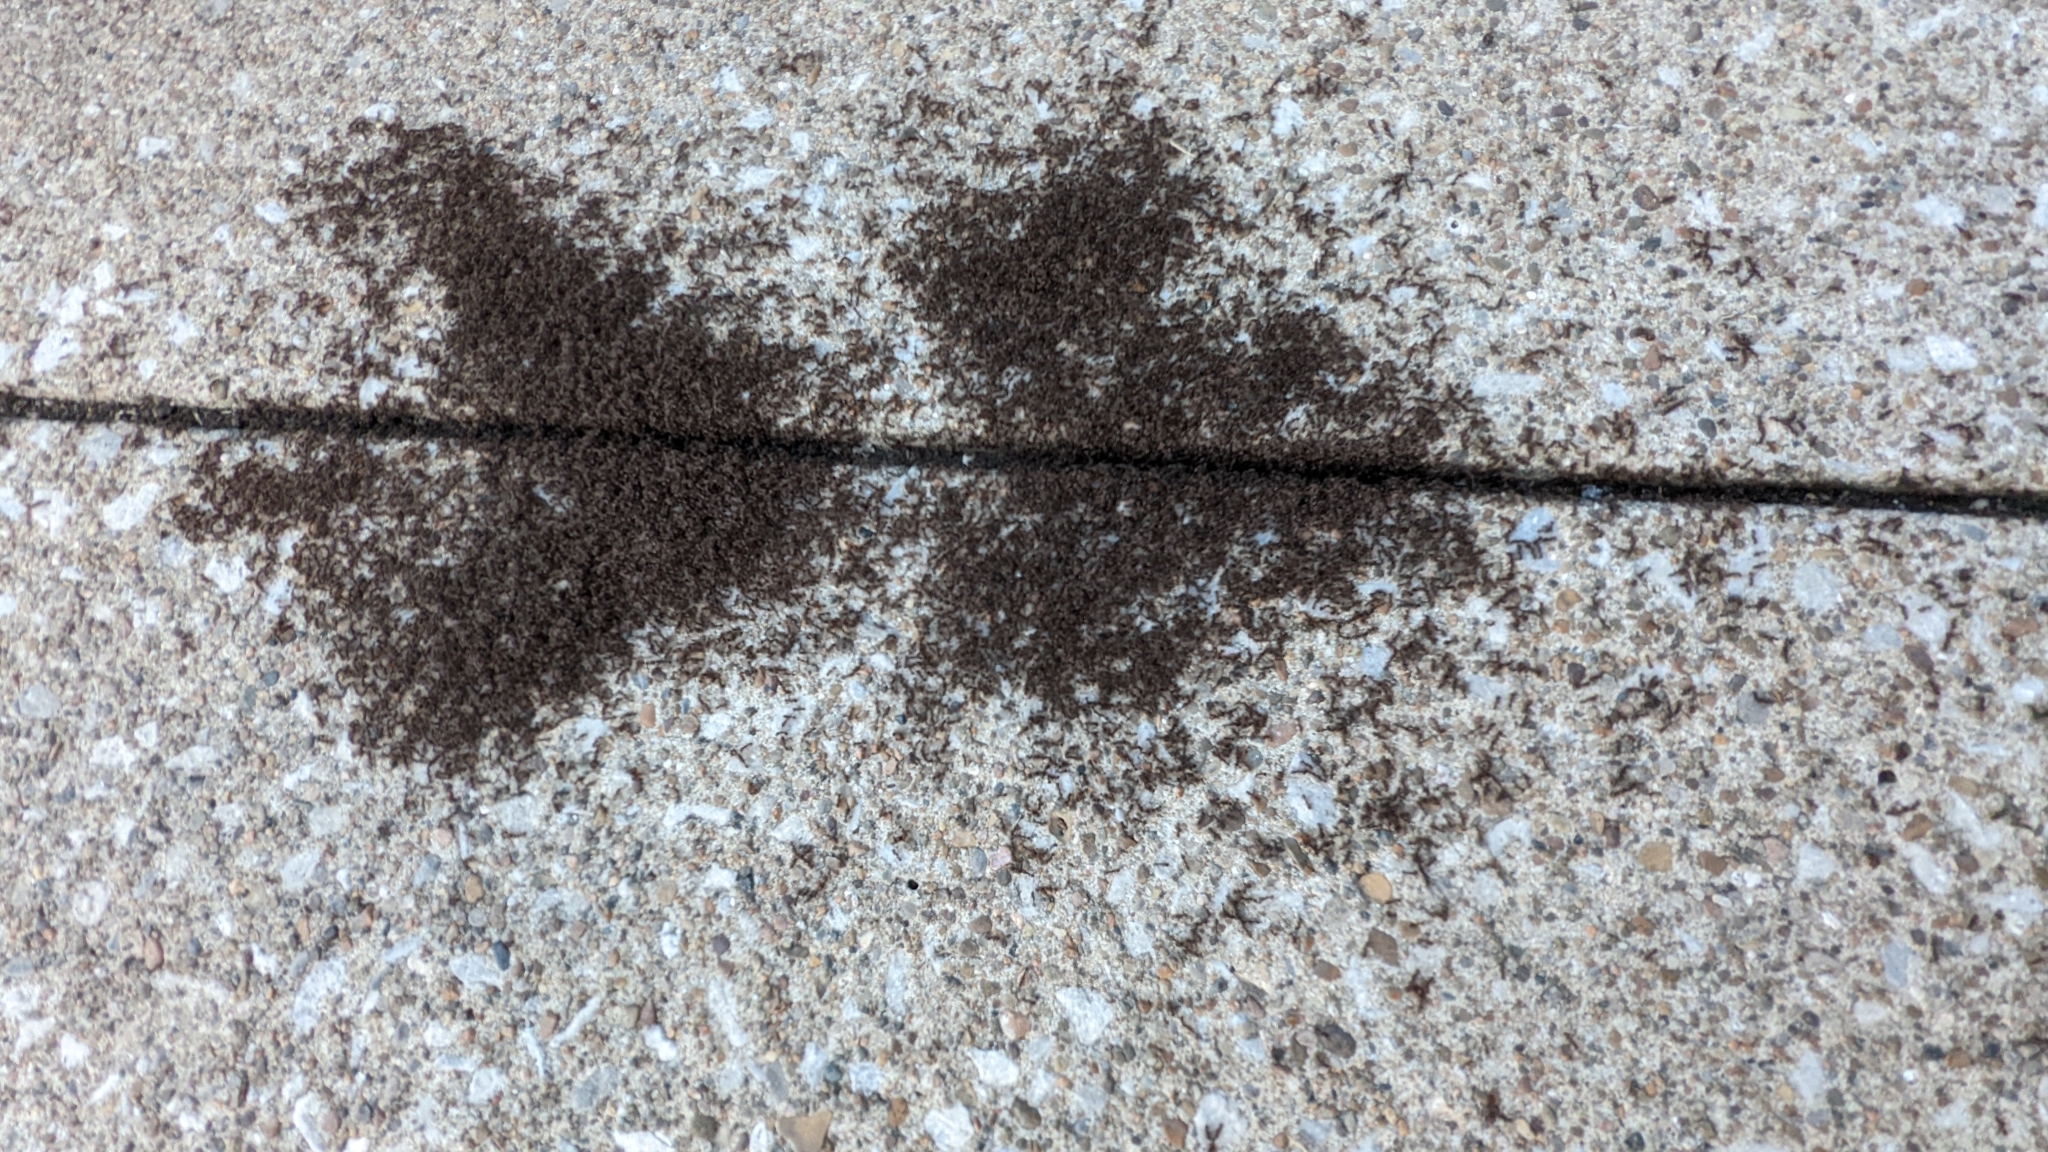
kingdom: Animalia
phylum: Arthropoda
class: Insecta
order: Hymenoptera
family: Formicidae
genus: Tetramorium
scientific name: Tetramorium immigrans
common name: Pavement ant
